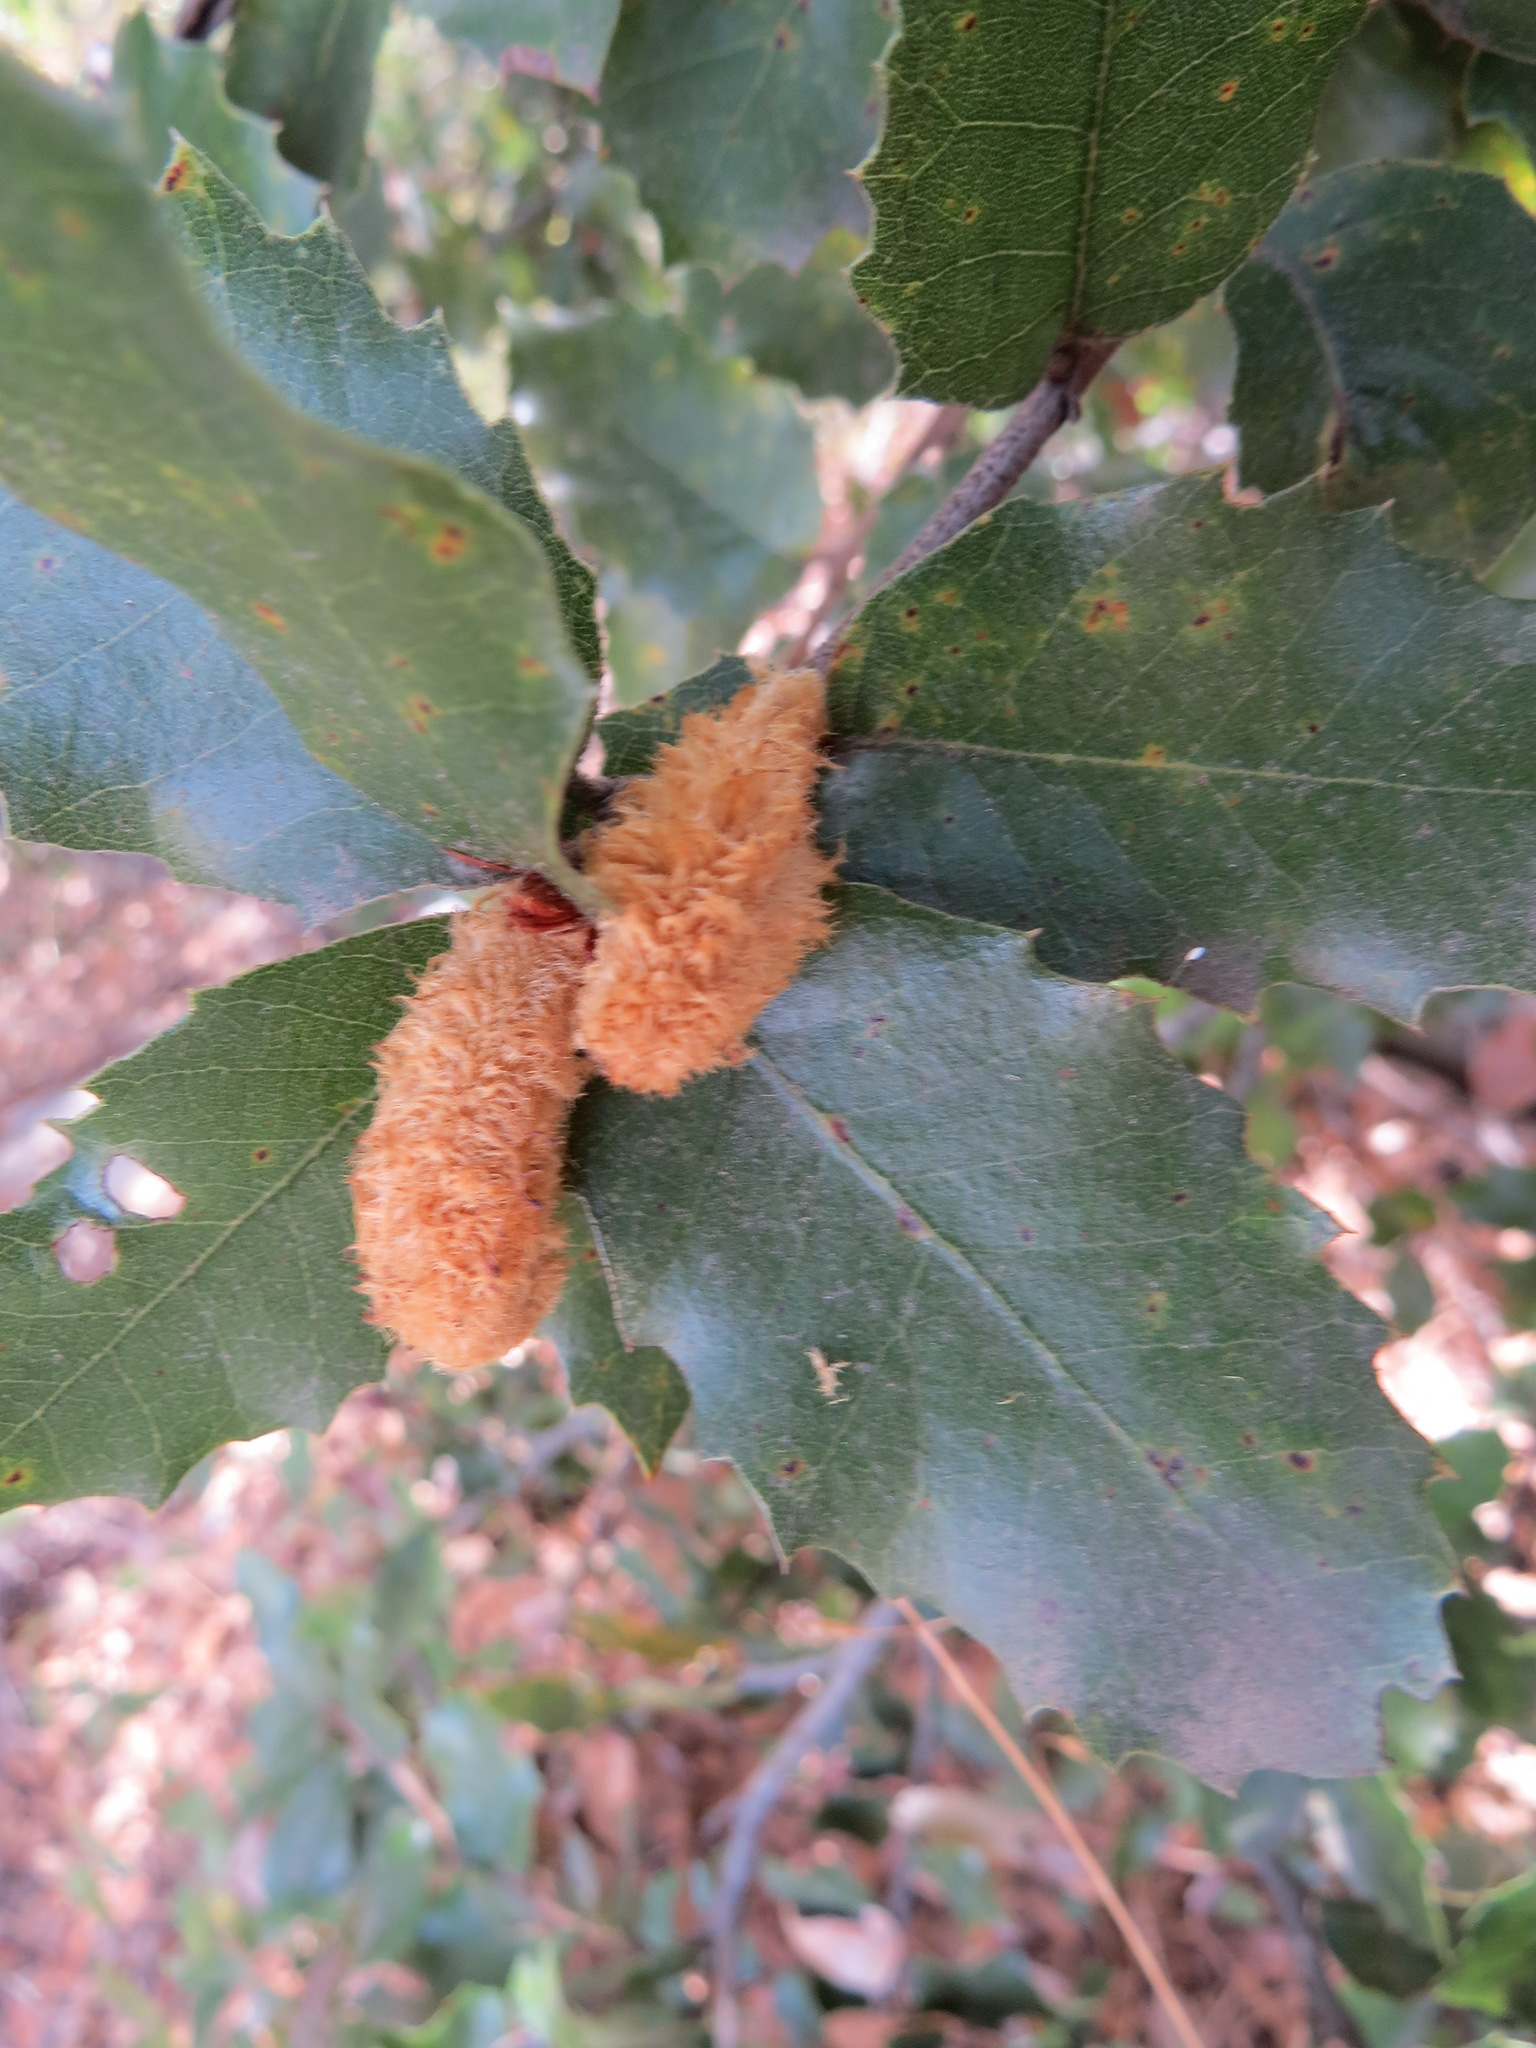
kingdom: Animalia
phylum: Arthropoda
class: Insecta
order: Hymenoptera
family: Cynipidae
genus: Heteroecus
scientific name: Heteroecus
